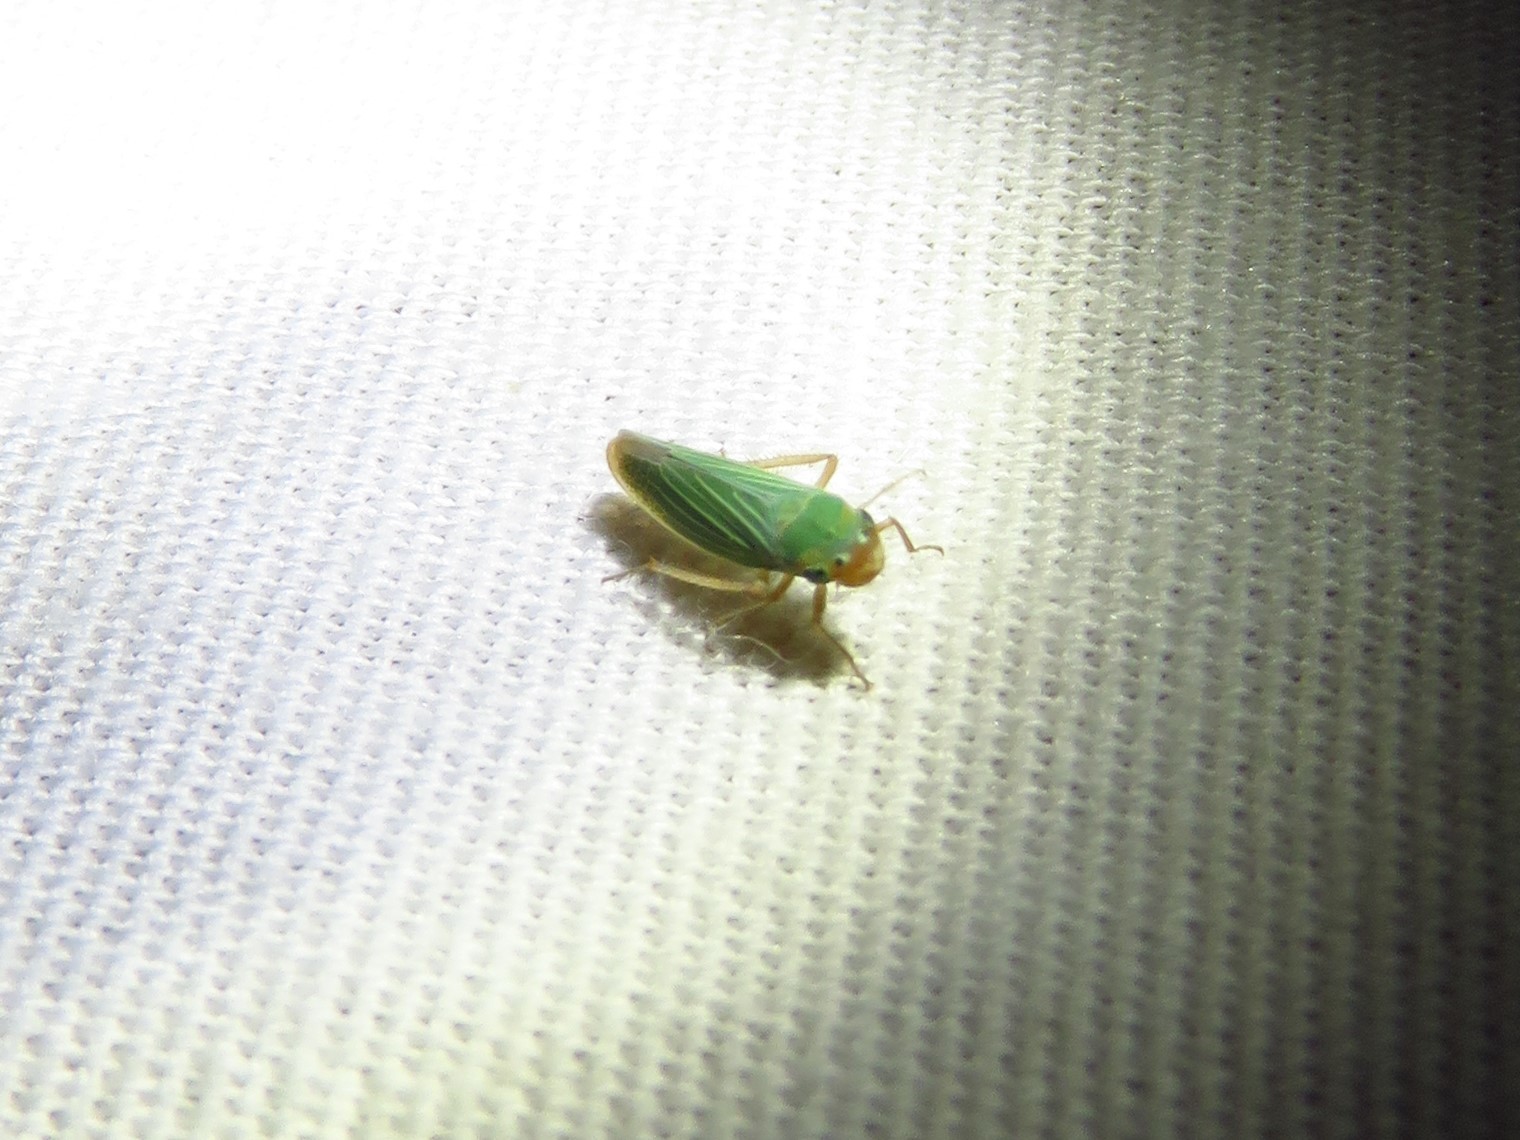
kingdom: Animalia
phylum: Arthropoda
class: Insecta
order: Hemiptera
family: Cicadellidae
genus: Xyphon
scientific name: Xyphon flaviceps
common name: Yellowheaded leafhopper
